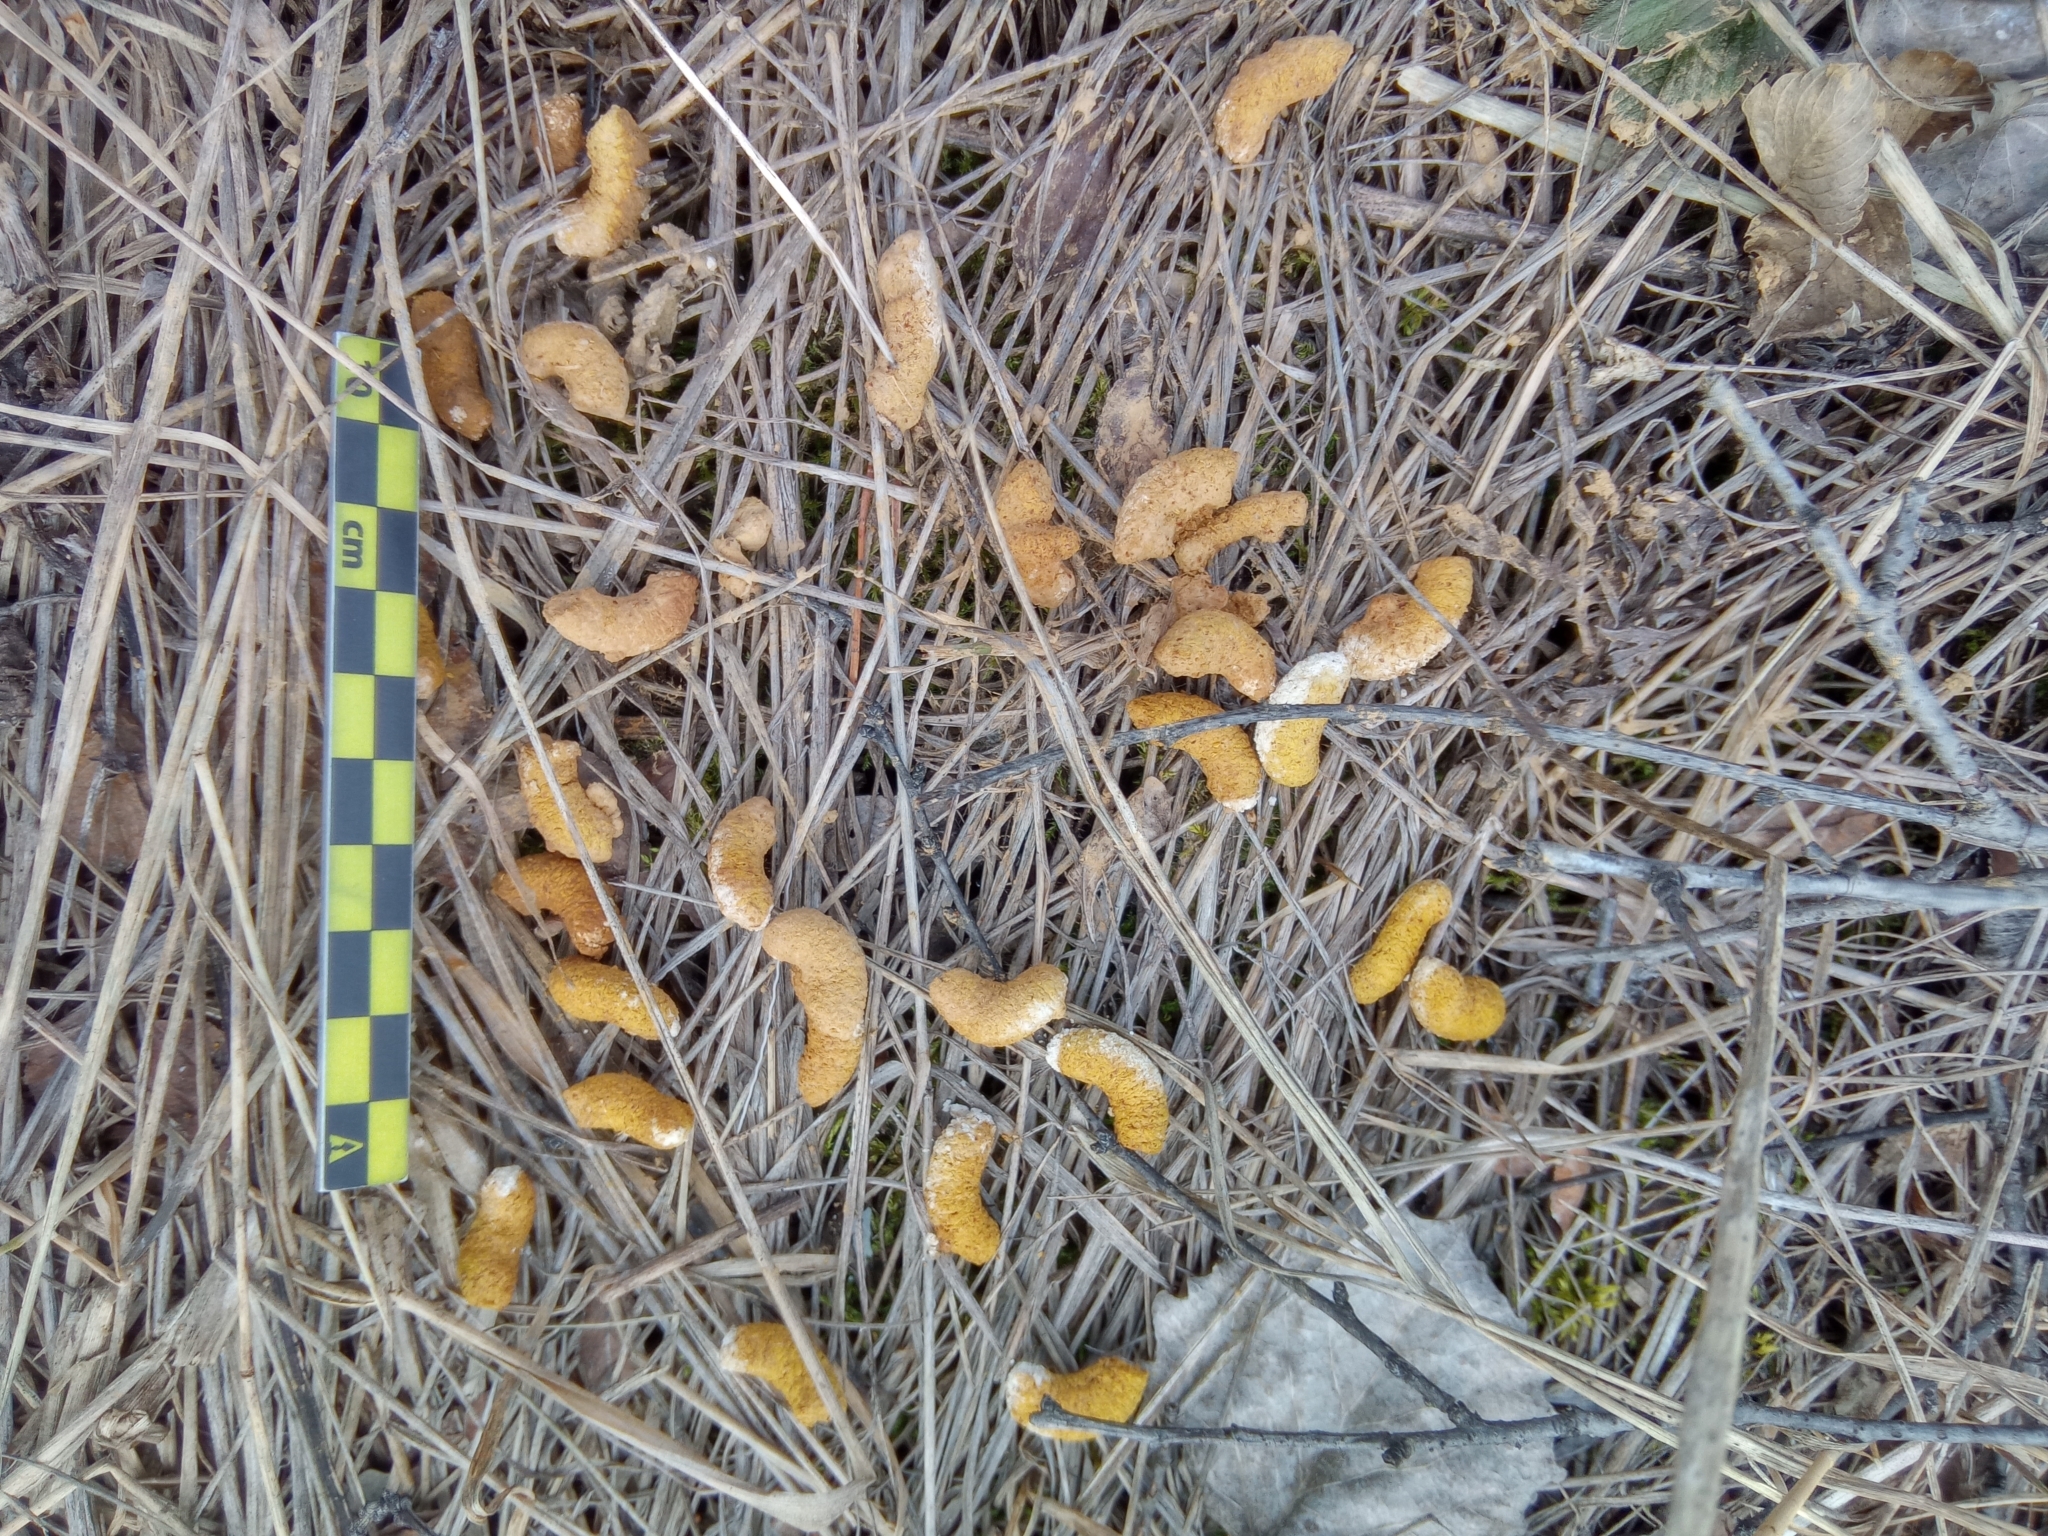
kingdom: Animalia
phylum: Chordata
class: Aves
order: Galliformes
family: Phasianidae
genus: Tetrastes
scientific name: Tetrastes bonasia
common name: Hazel grouse
